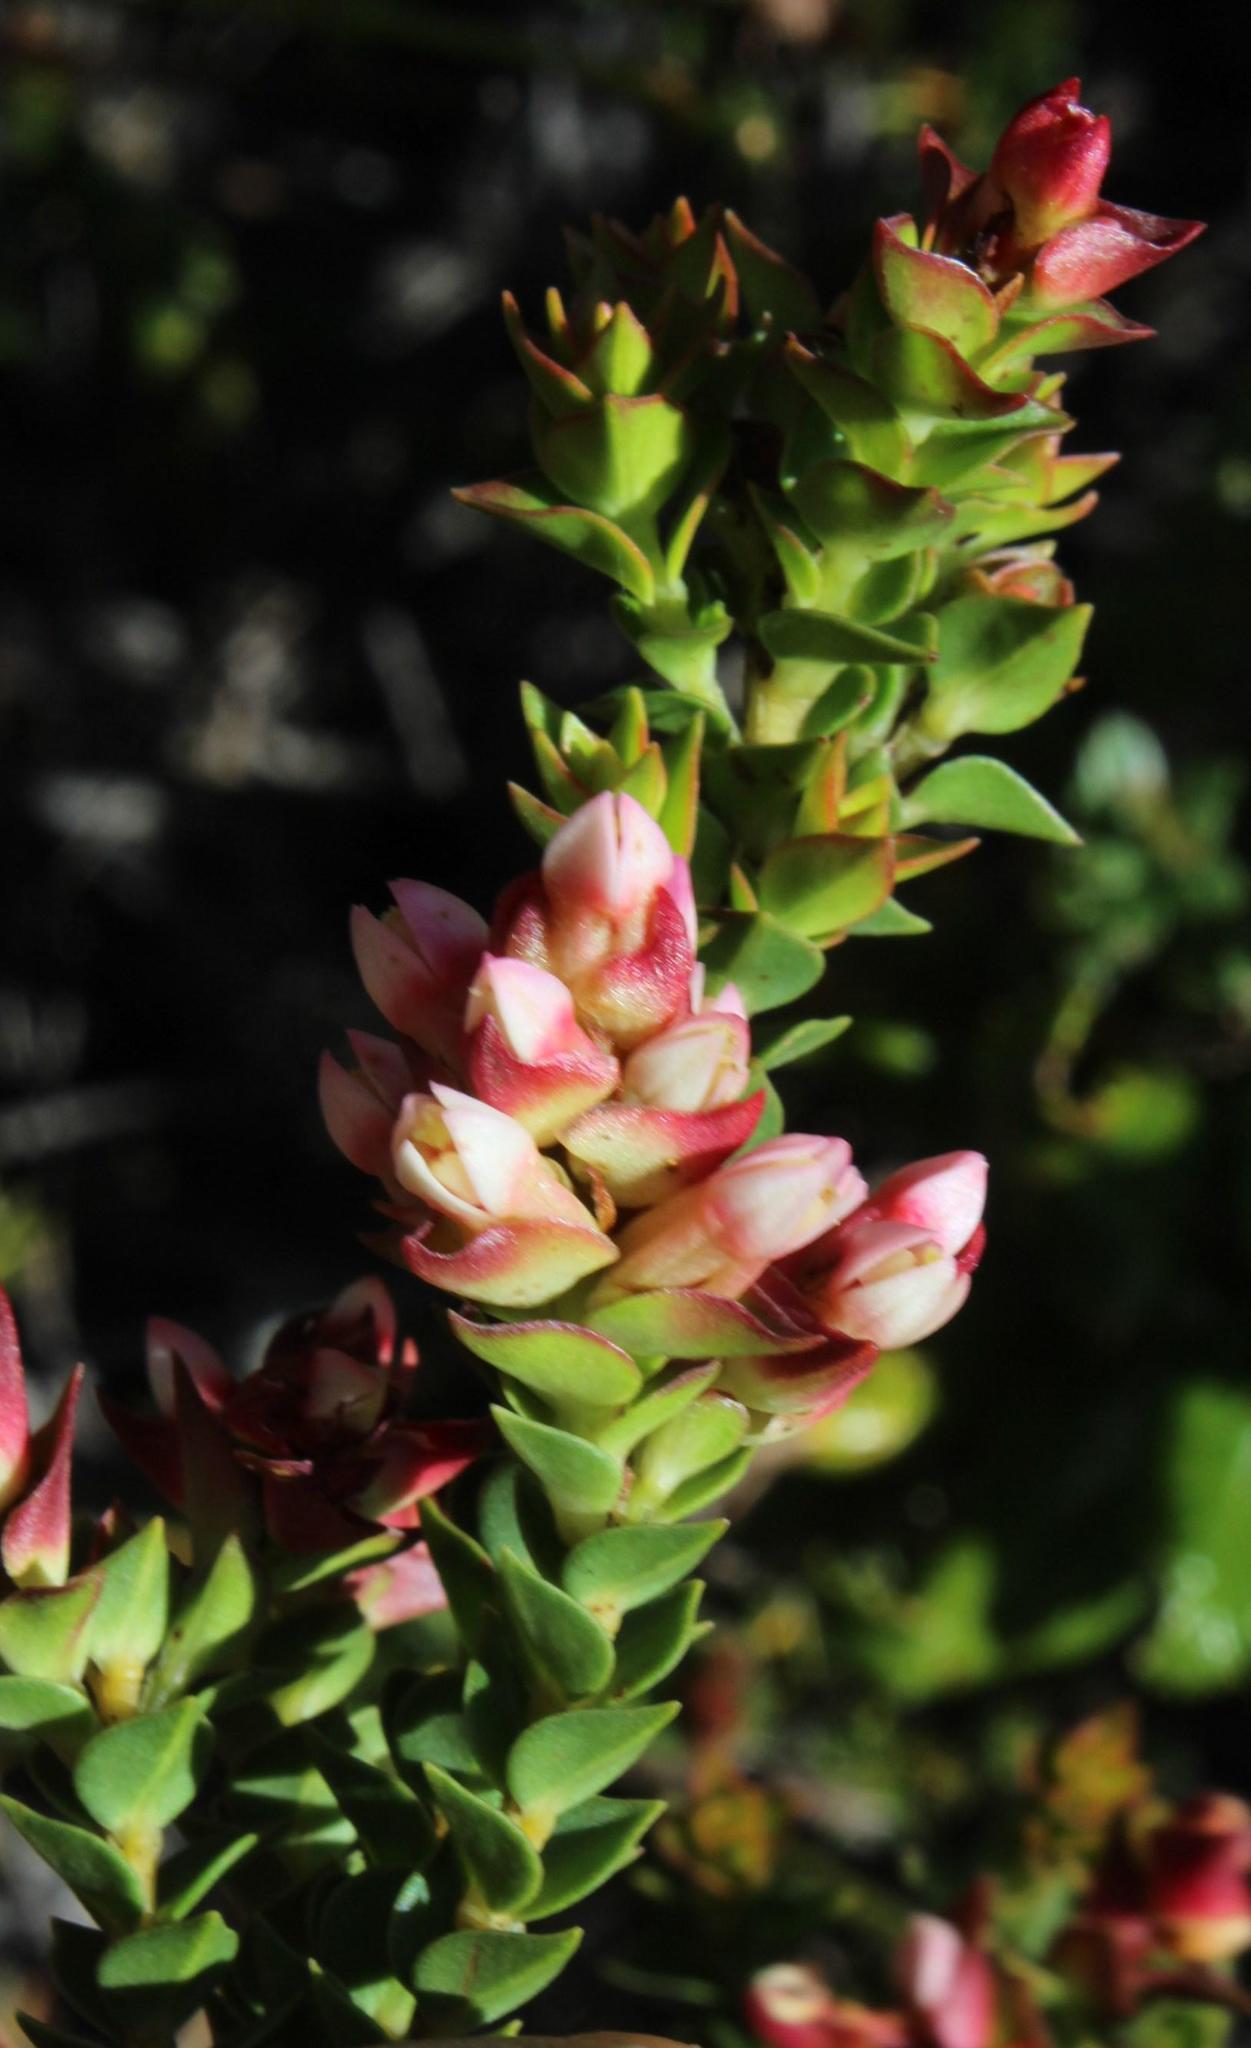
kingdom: Plantae
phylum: Tracheophyta
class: Magnoliopsida
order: Myrtales
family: Penaeaceae
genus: Brachysiphon
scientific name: Brachysiphon fucatus
